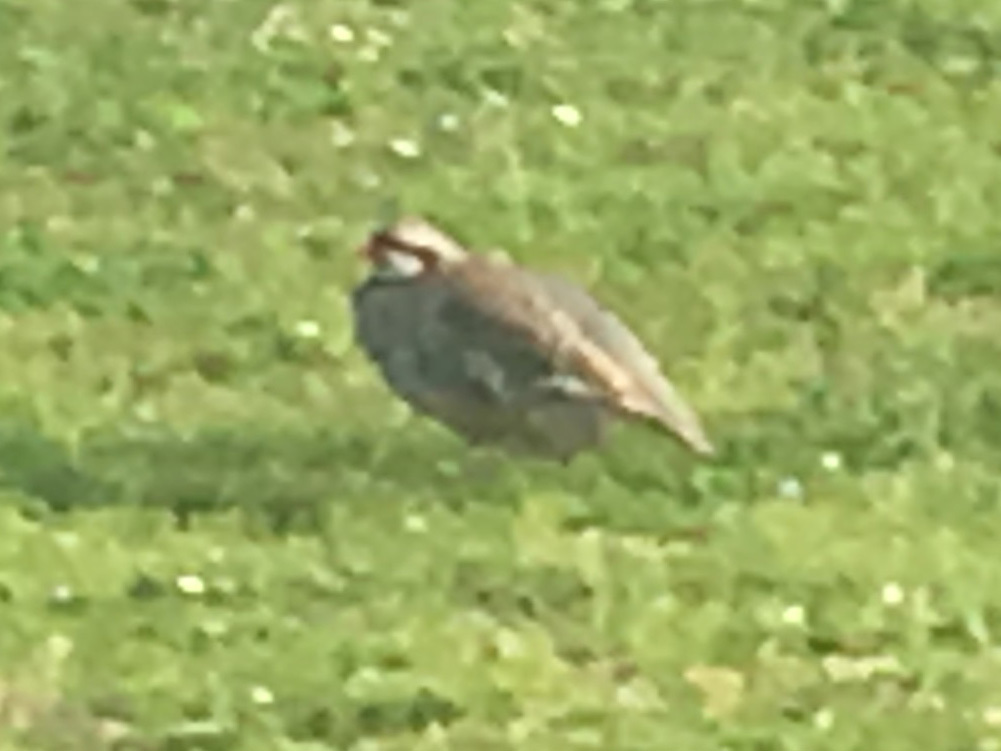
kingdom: Animalia
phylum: Chordata
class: Aves
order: Galliformes
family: Phasianidae
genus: Alectoris
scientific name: Alectoris chukar
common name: Chukar
